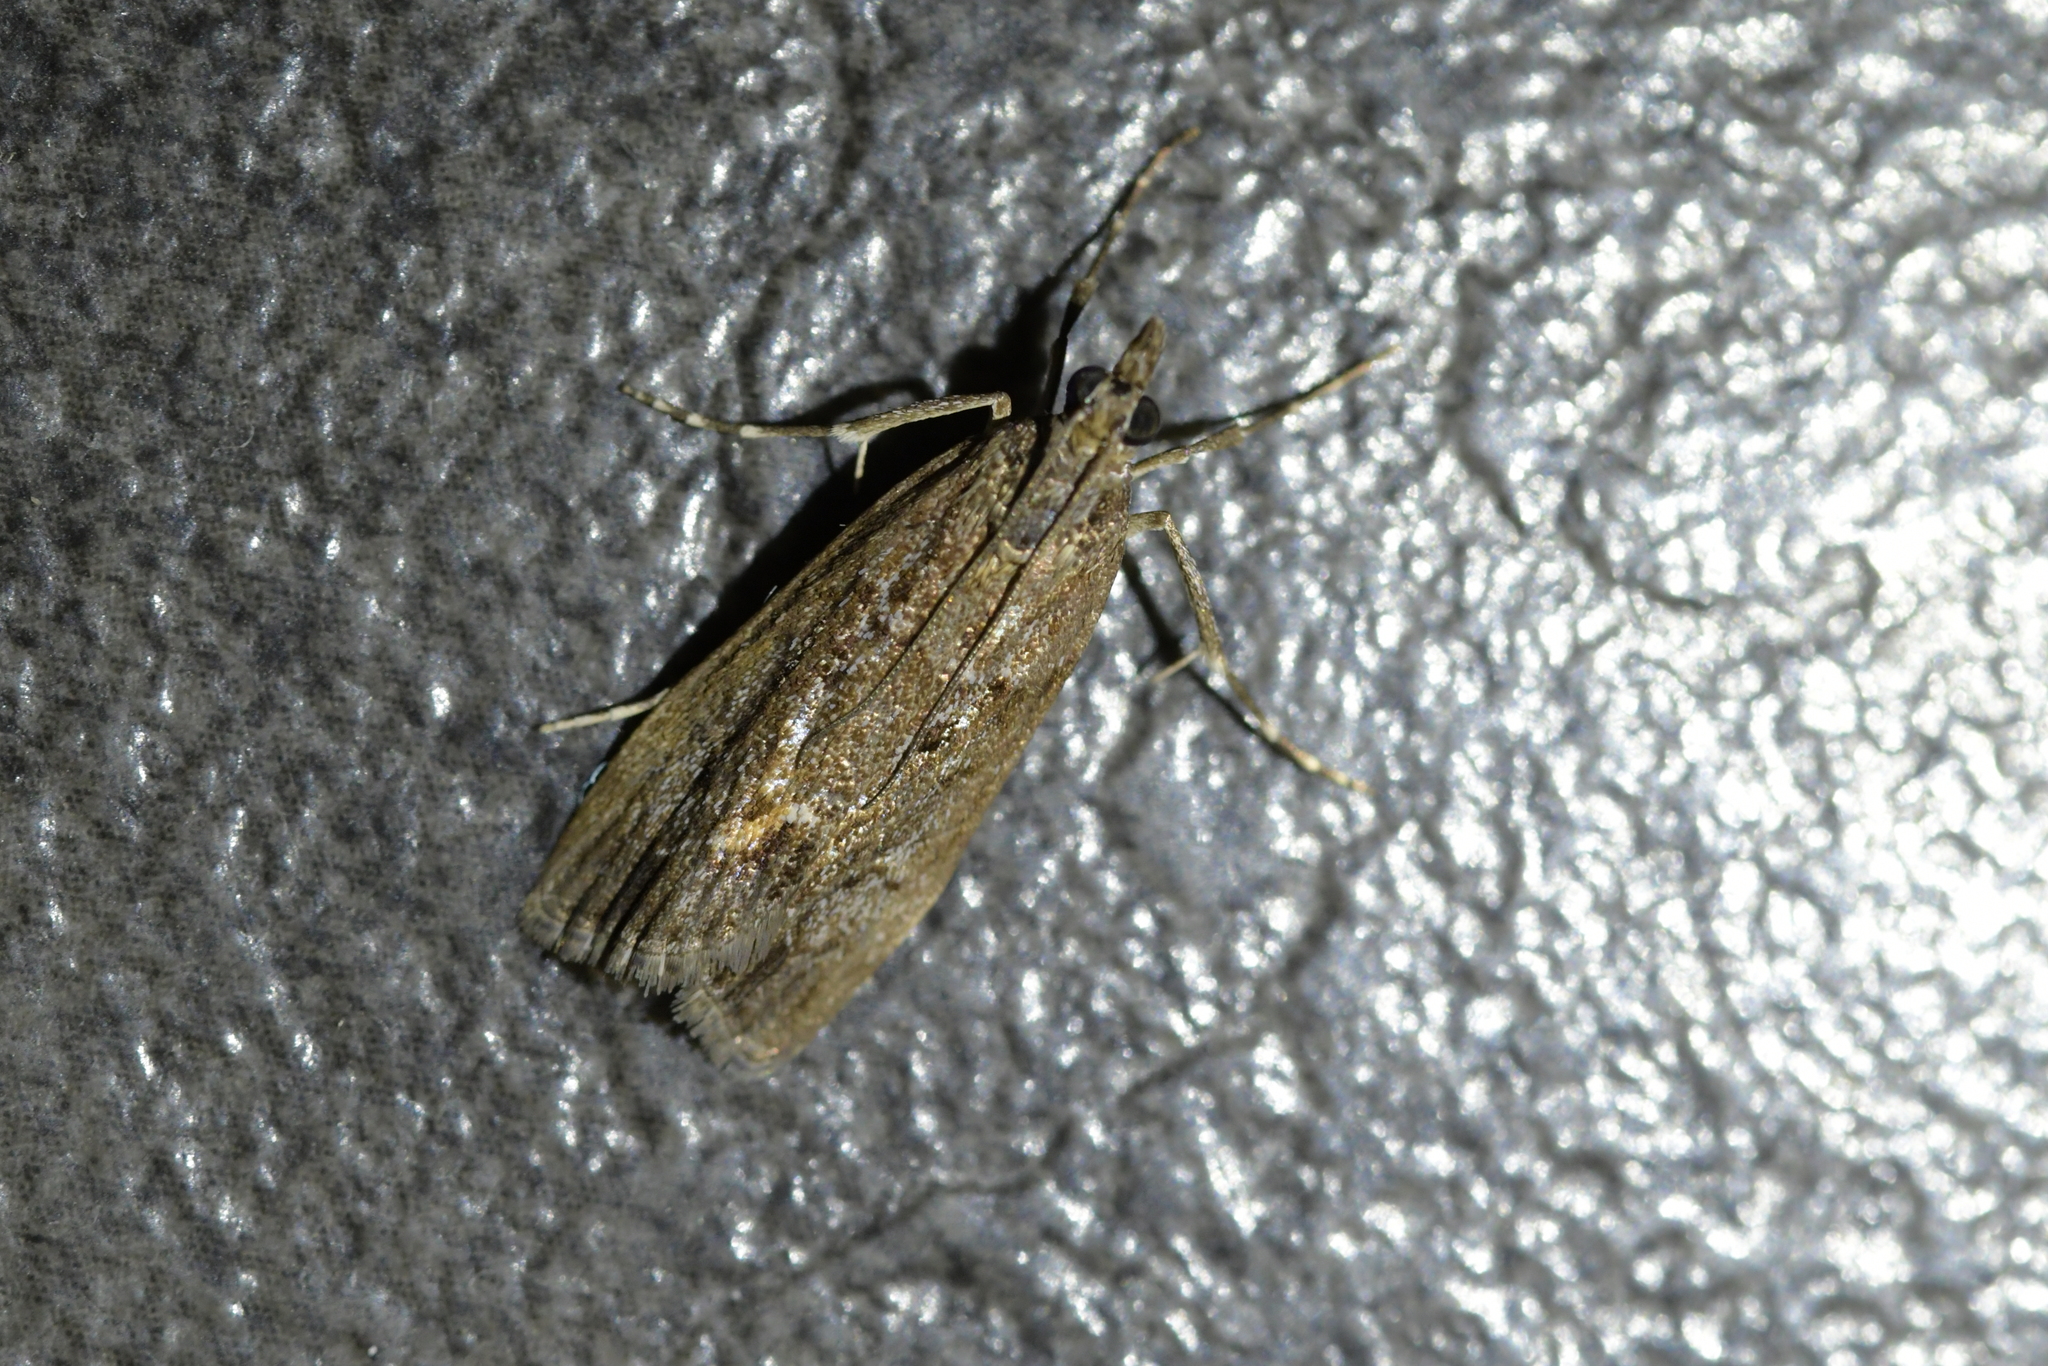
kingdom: Animalia
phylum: Arthropoda
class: Insecta
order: Lepidoptera
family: Crambidae
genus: Eudonia
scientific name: Eudonia submarginalis
